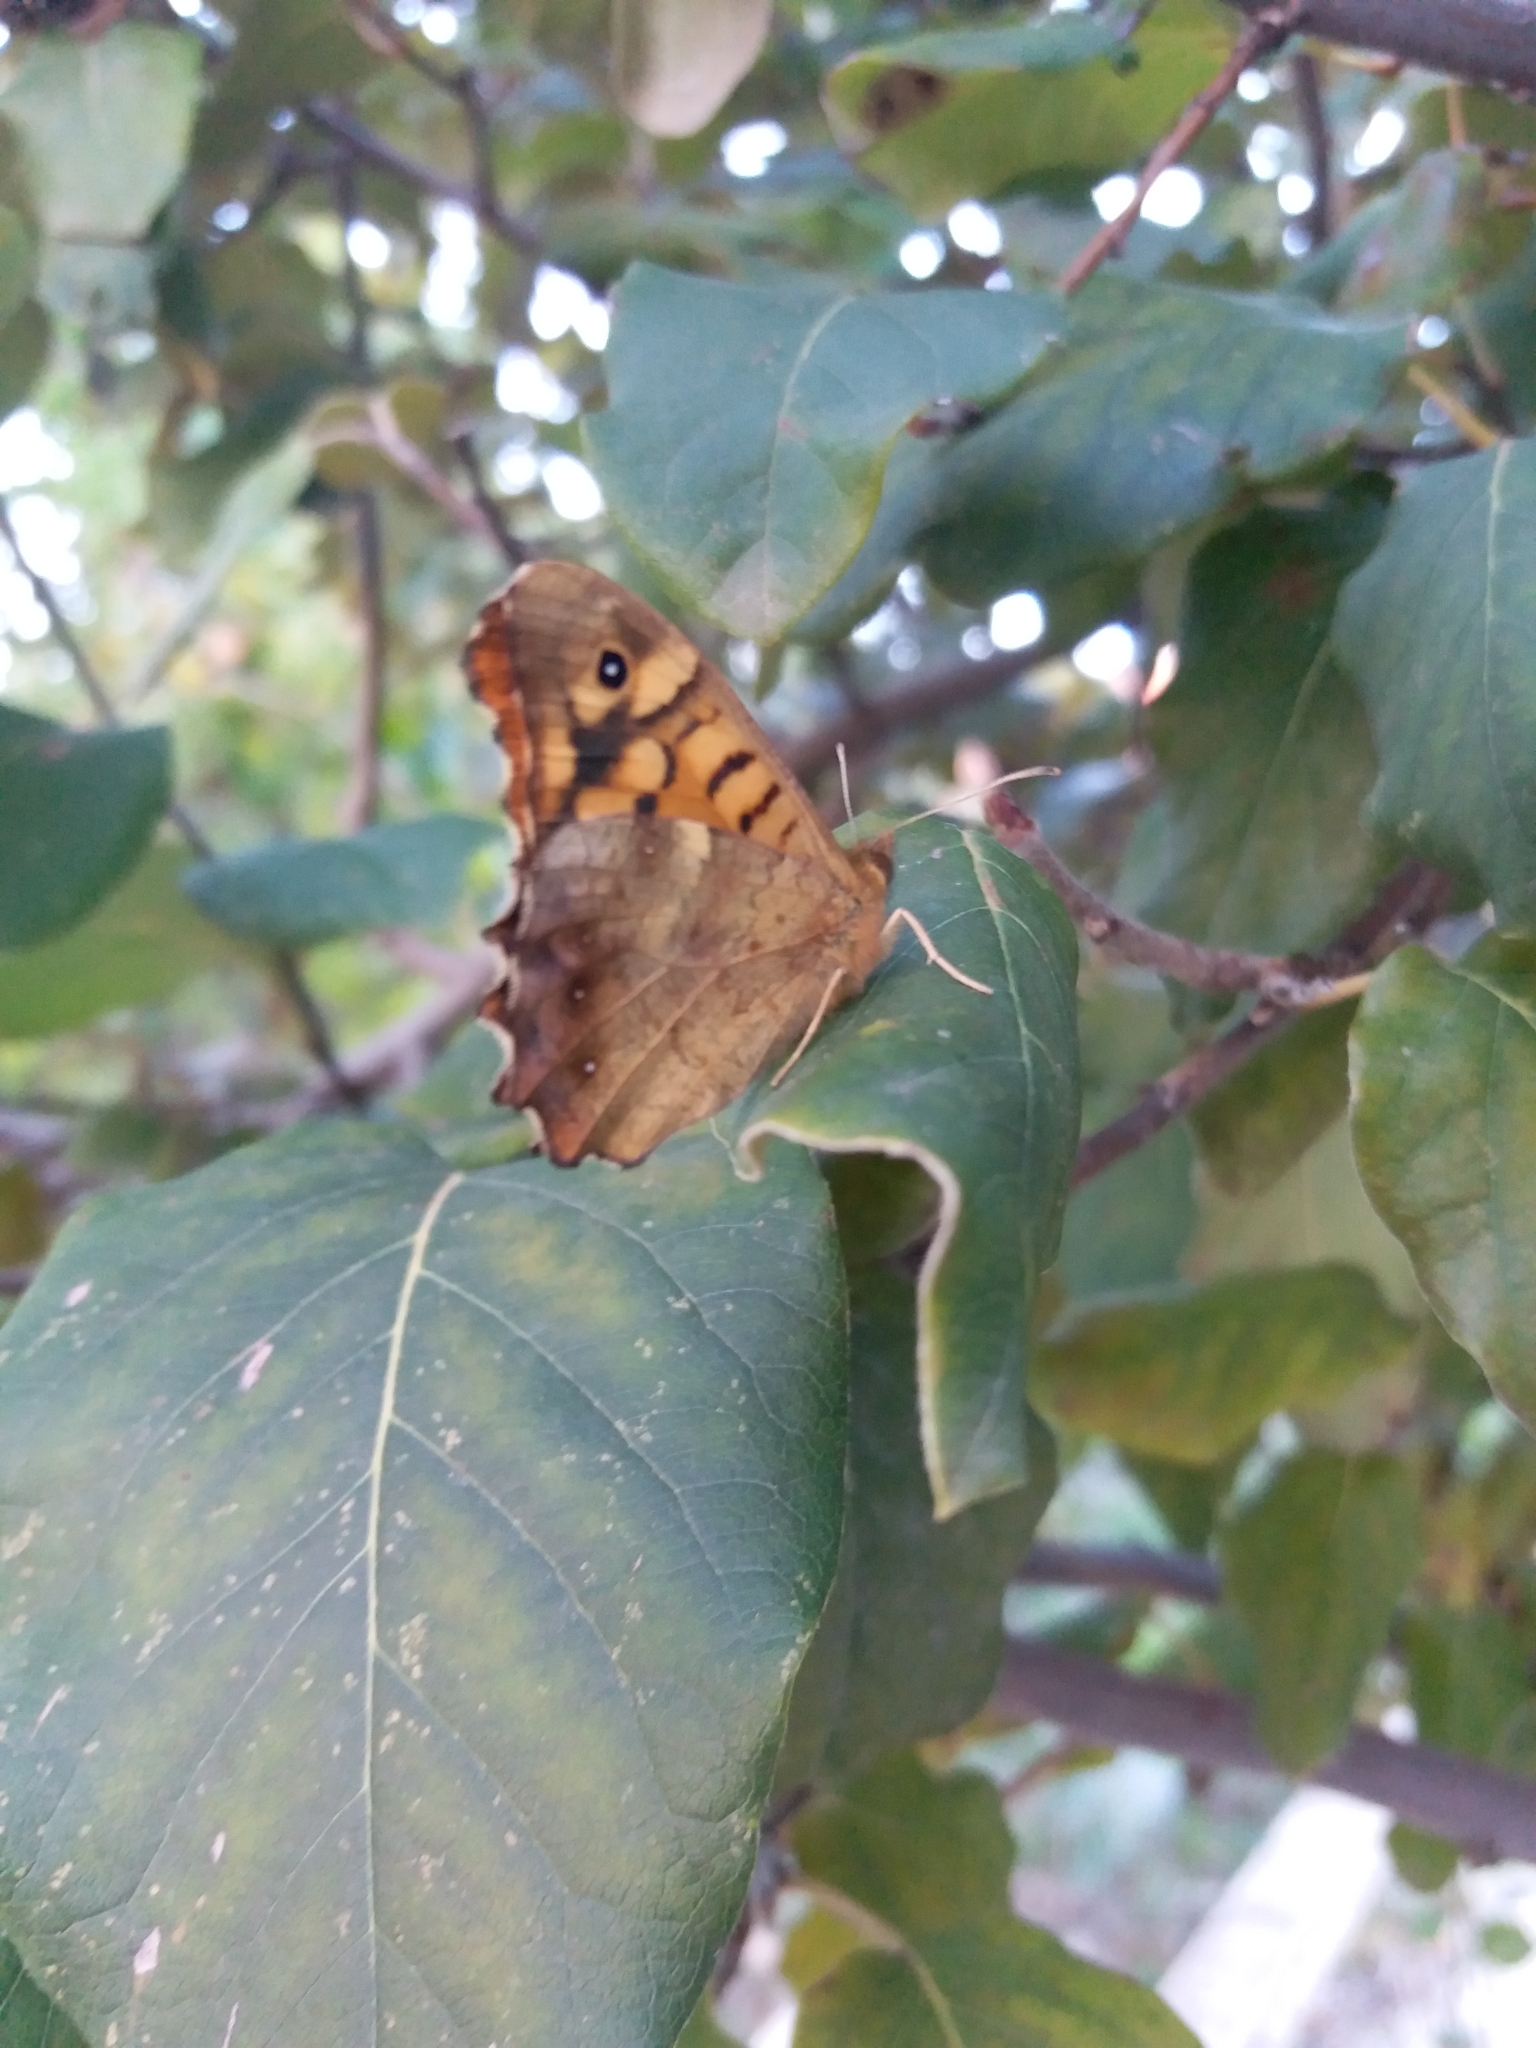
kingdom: Animalia
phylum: Arthropoda
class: Insecta
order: Lepidoptera
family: Nymphalidae
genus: Pararge
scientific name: Pararge aegeria
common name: Speckled wood
